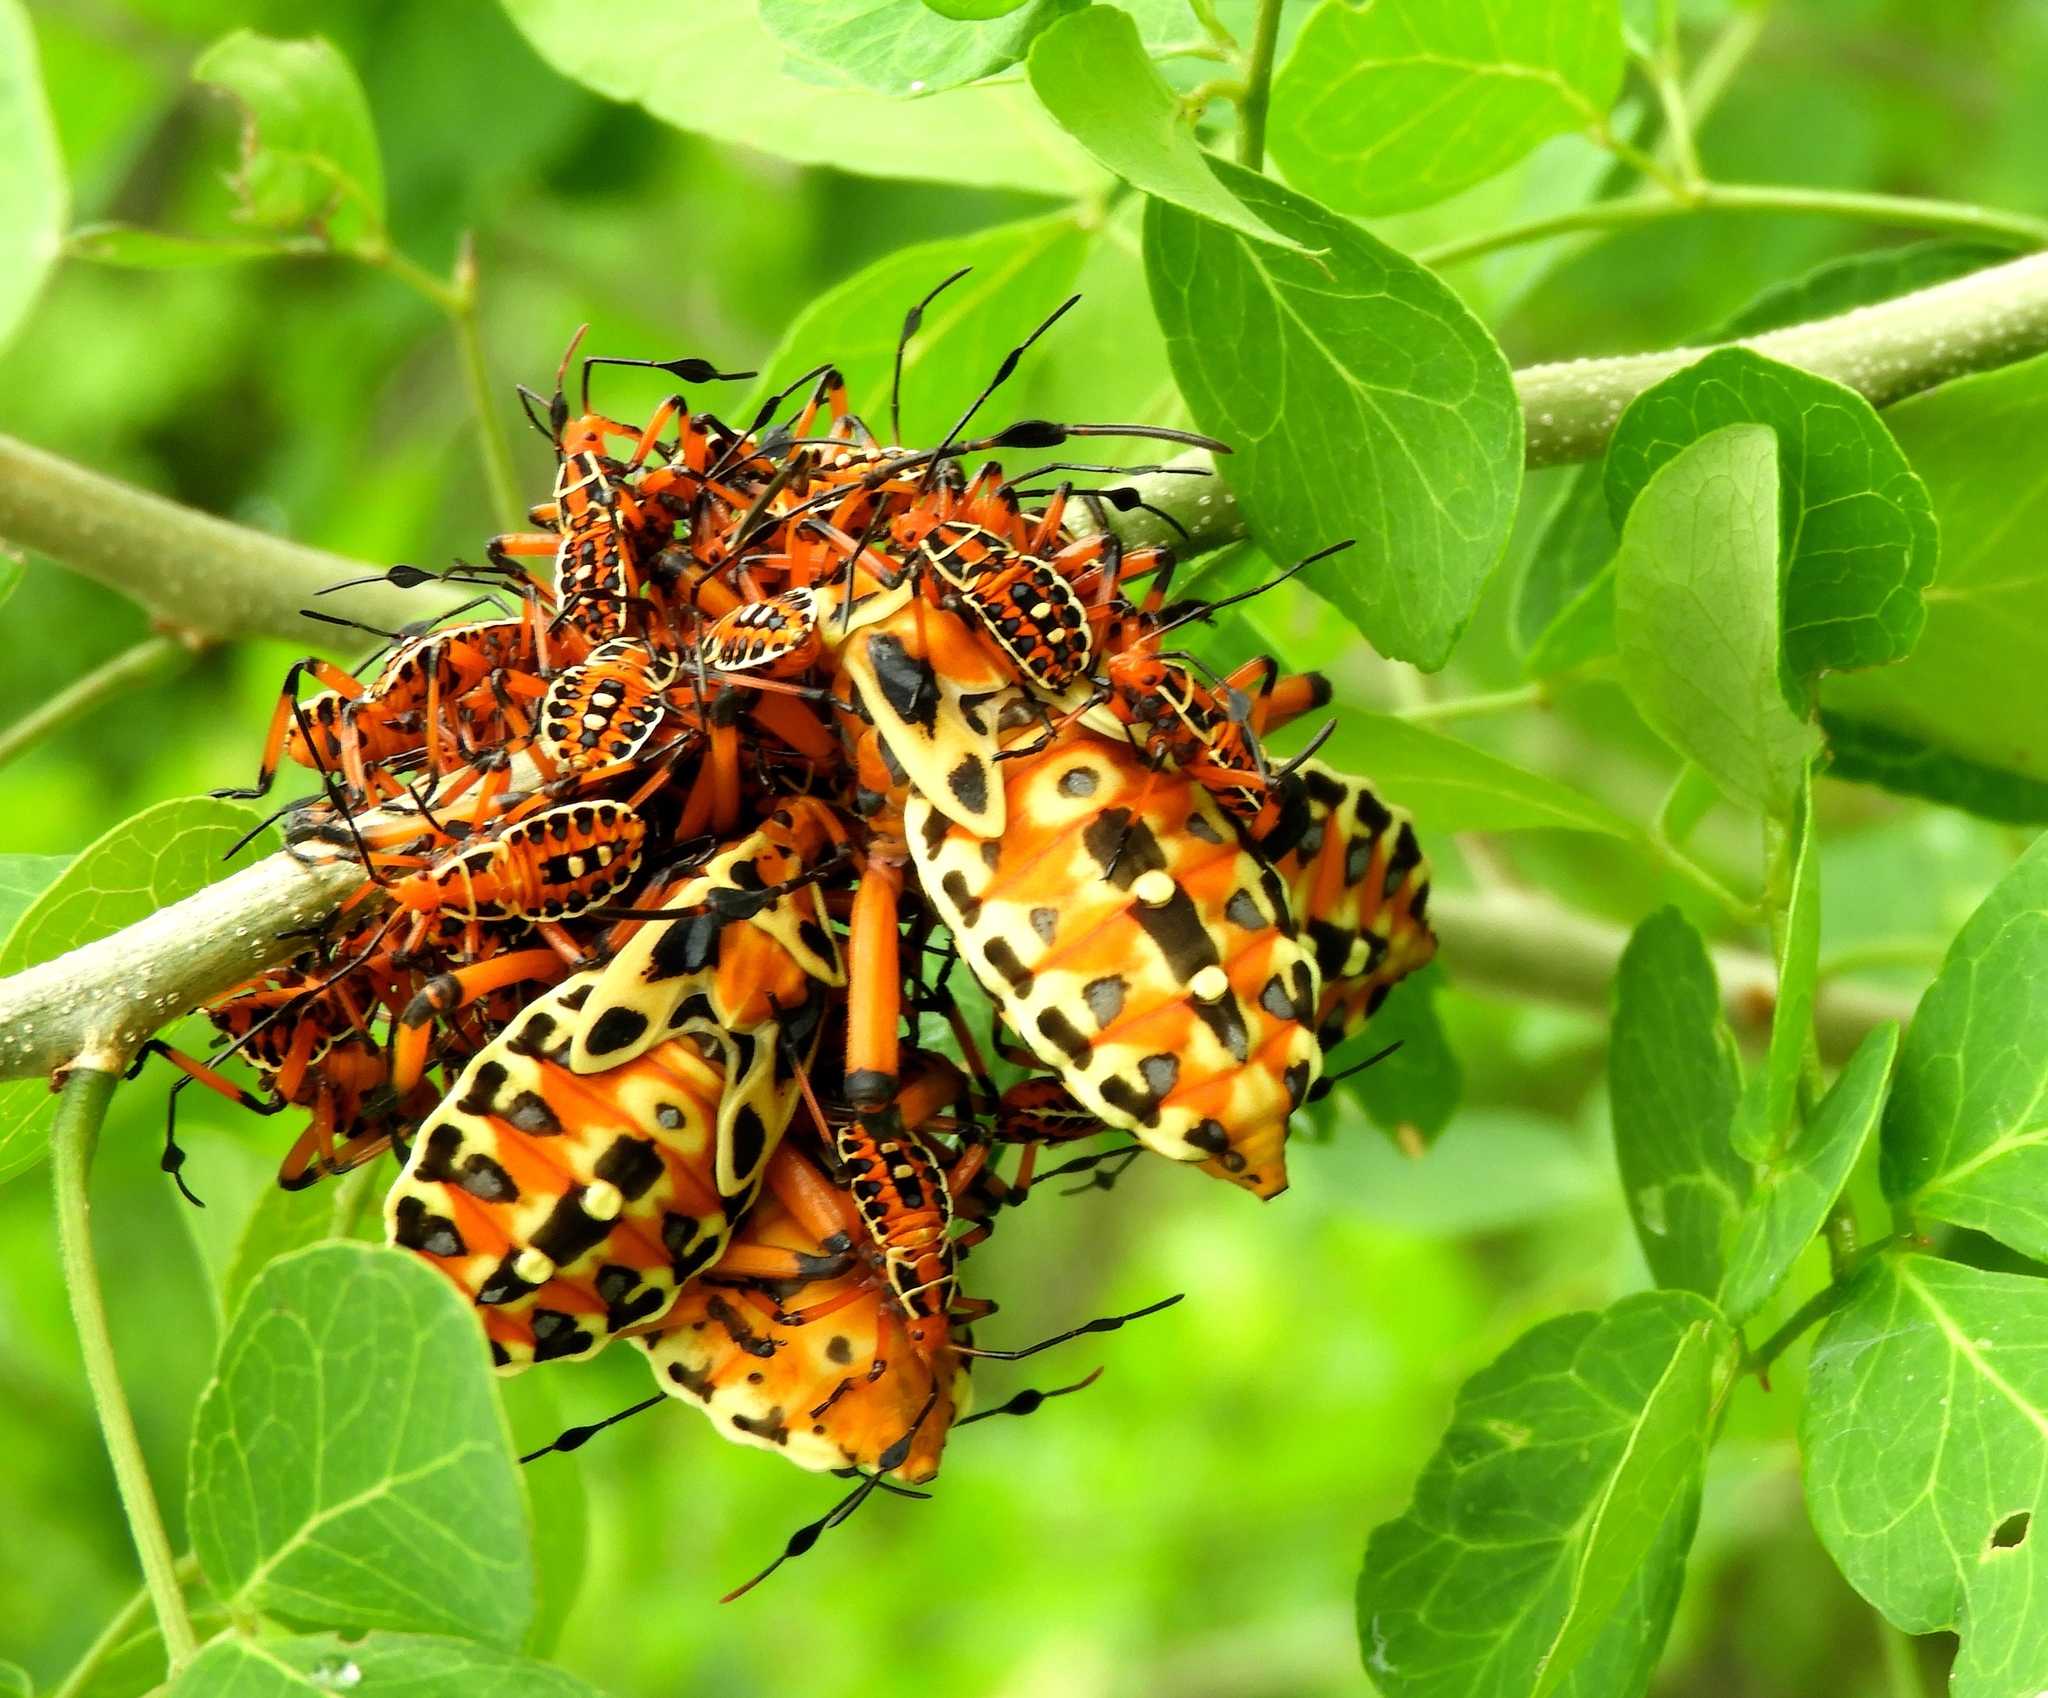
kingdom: Animalia
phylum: Arthropoda
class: Insecta
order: Hemiptera
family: Coreidae
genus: Pachylis
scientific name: Pachylis nervosus
